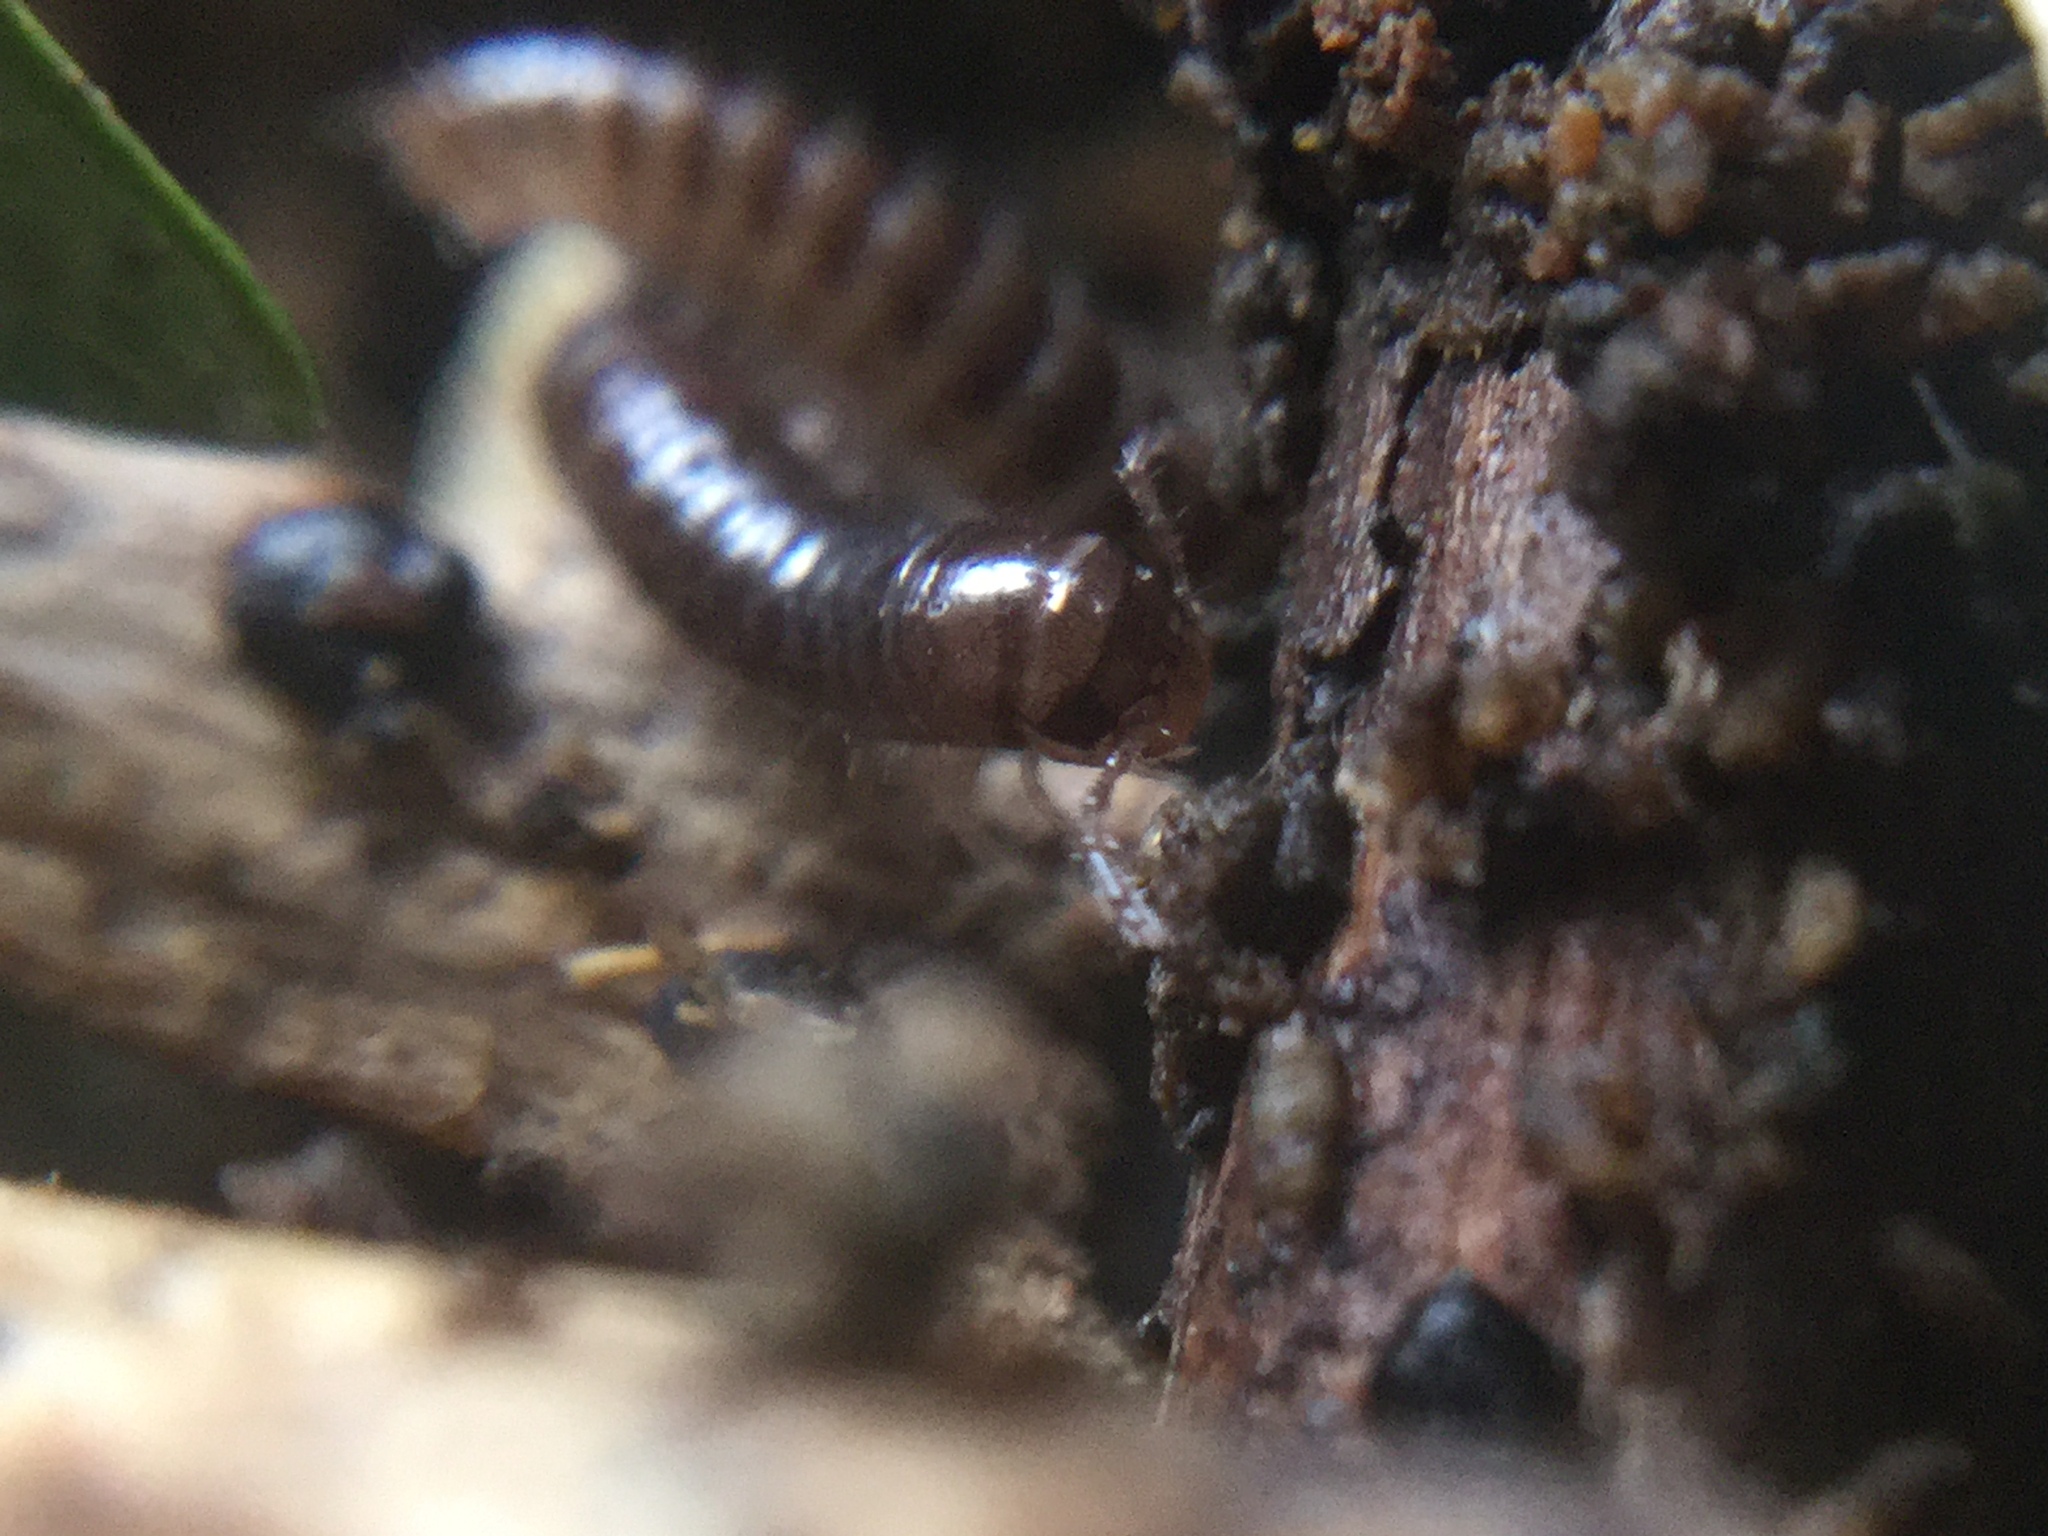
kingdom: Animalia
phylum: Arthropoda
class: Diplopoda
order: Julida
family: Julidae
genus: Ophyiulus
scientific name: Ophyiulus pilosus
